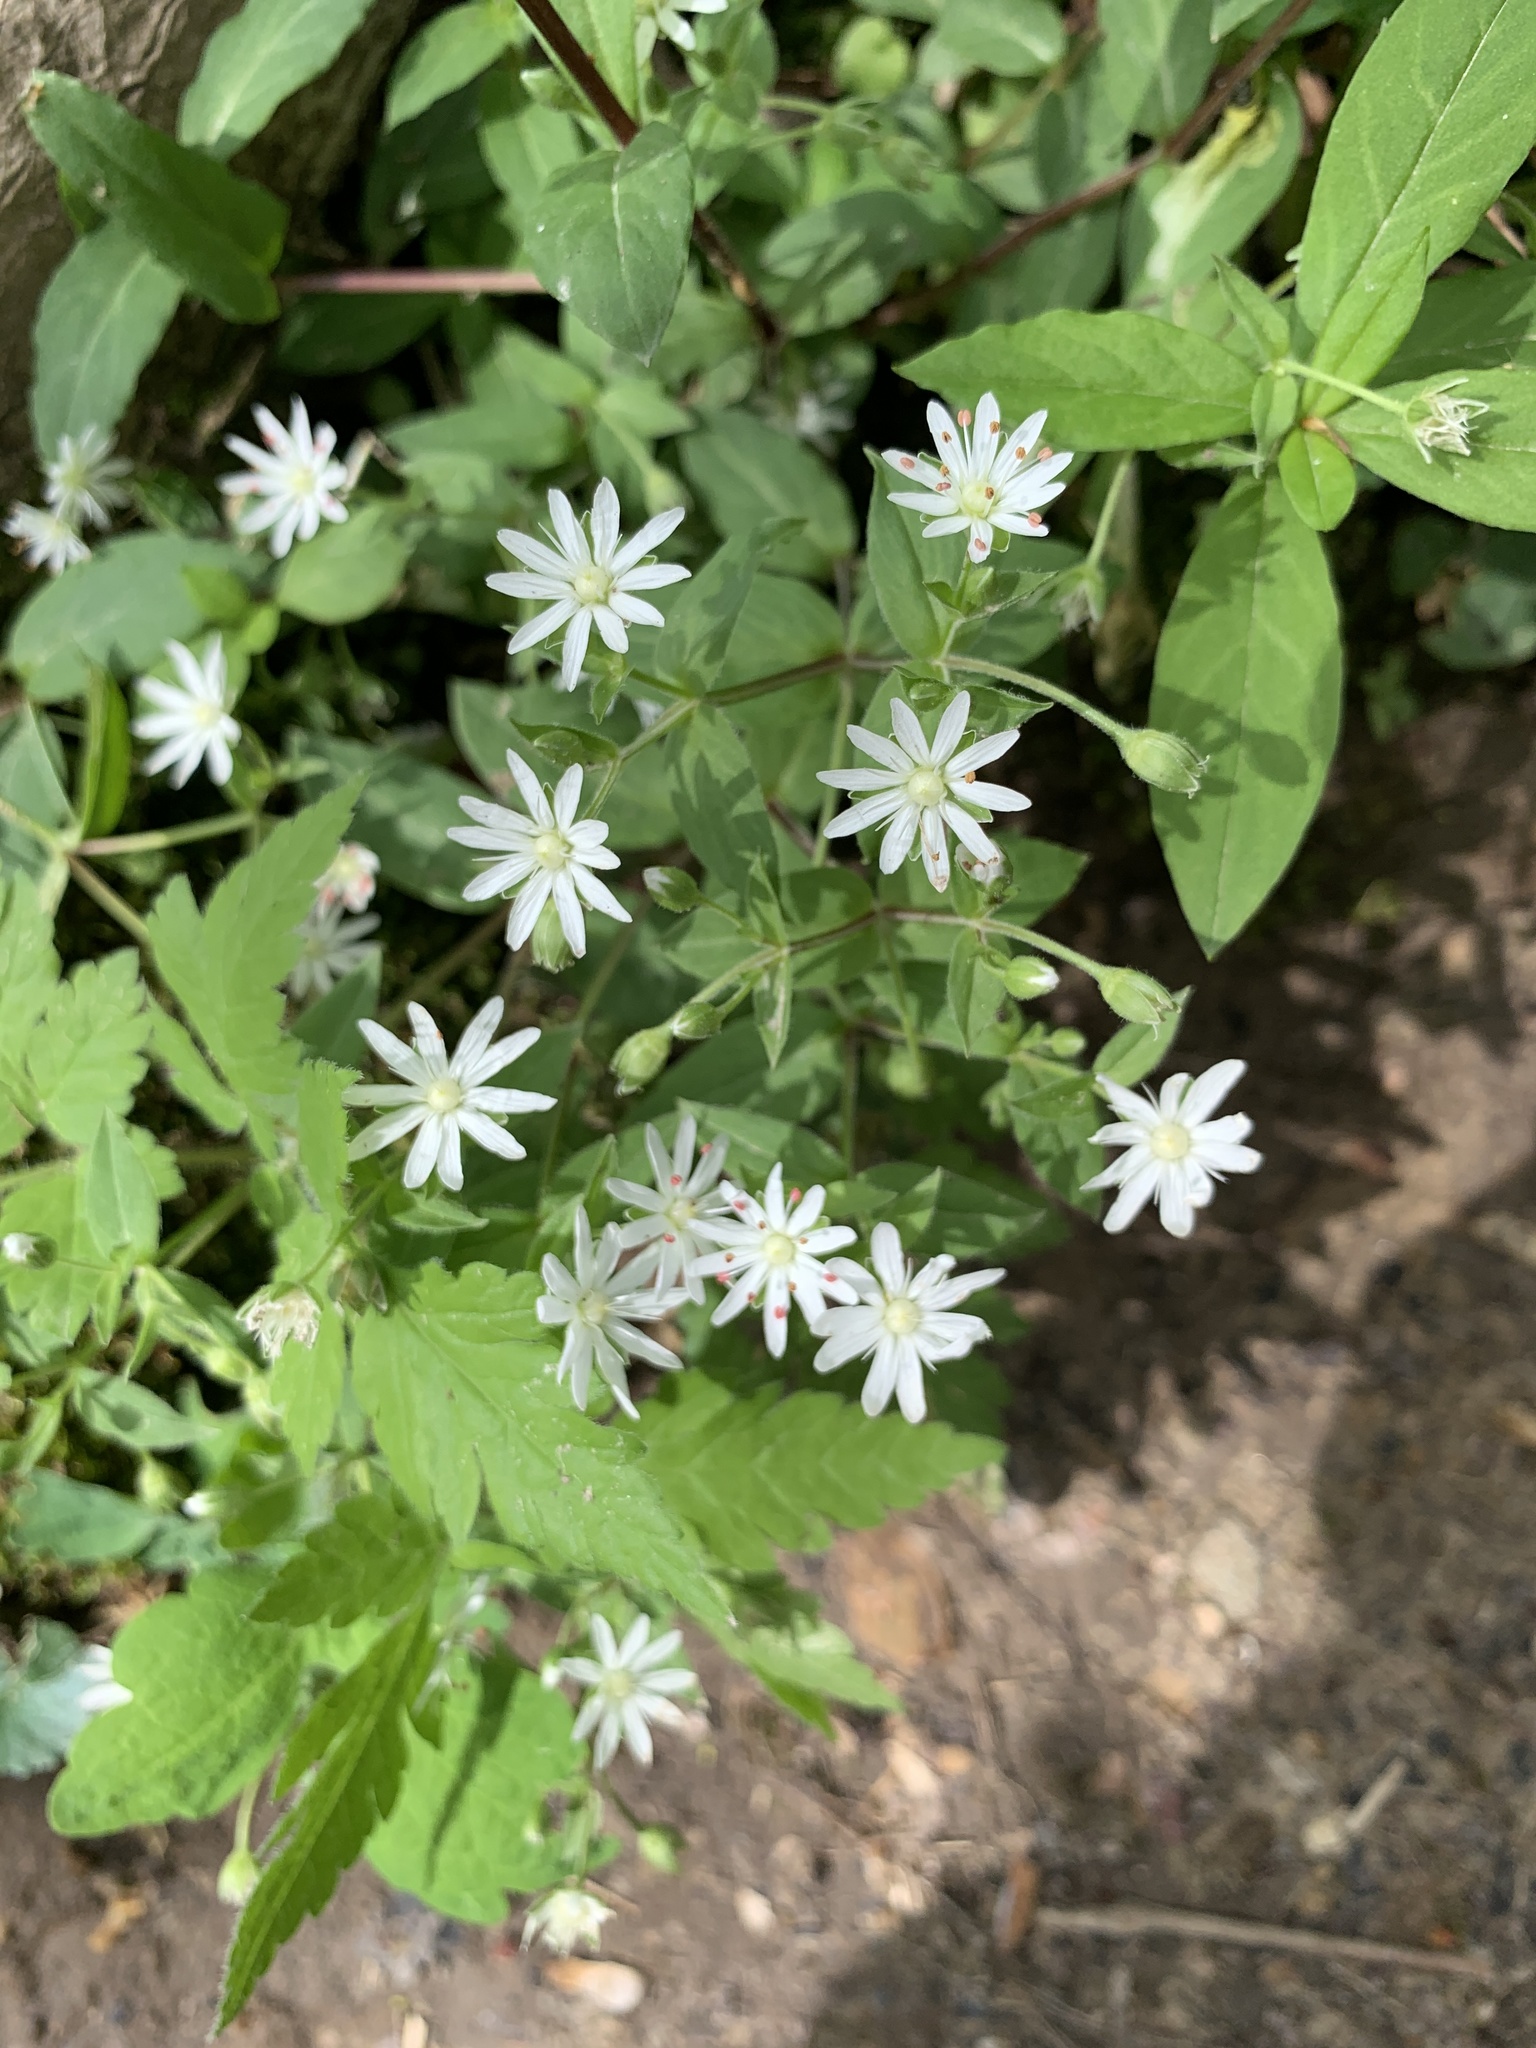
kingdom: Plantae
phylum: Tracheophyta
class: Magnoliopsida
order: Caryophyllales
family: Caryophyllaceae
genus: Stellaria
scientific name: Stellaria pubera
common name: Star chickweed
